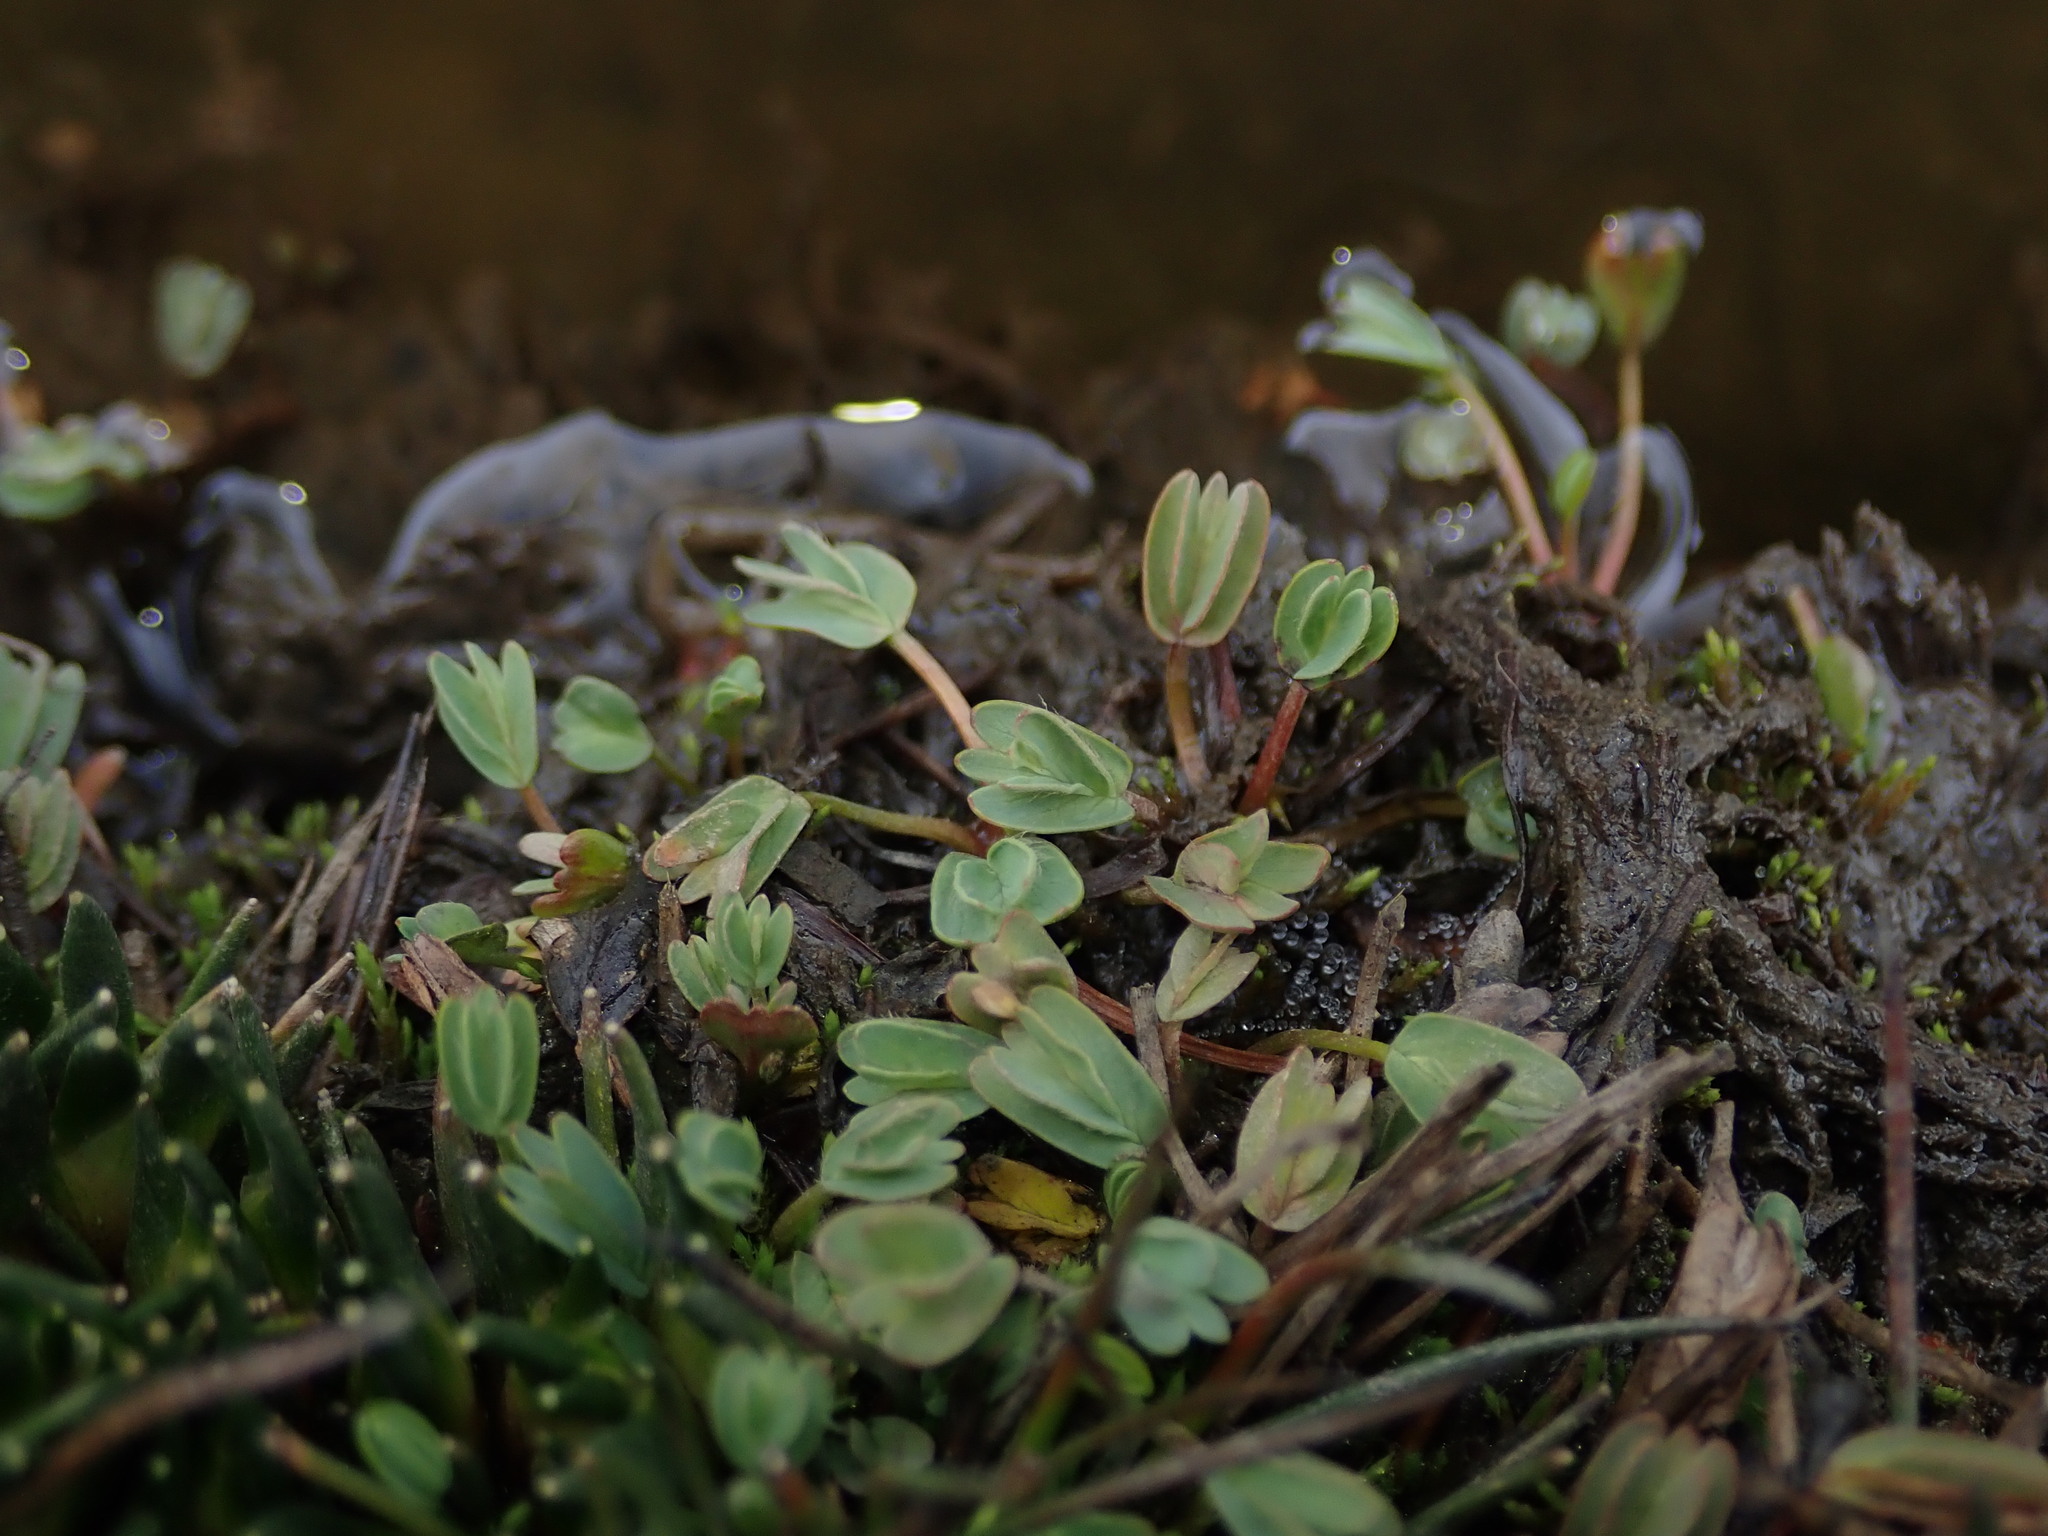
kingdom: Plantae
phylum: Tracheophyta
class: Magnoliopsida
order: Rosales
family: Rosaceae
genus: Lachemilla
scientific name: Lachemilla diplophylla
